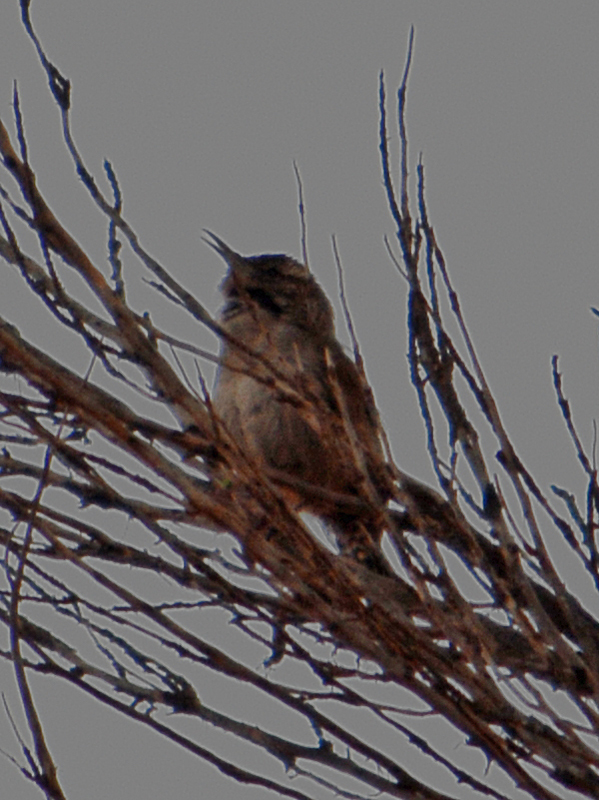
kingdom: Animalia
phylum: Chordata
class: Aves
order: Passeriformes
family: Troglodytidae
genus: Thryomanes
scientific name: Thryomanes bewickii
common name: Bewick's wren
